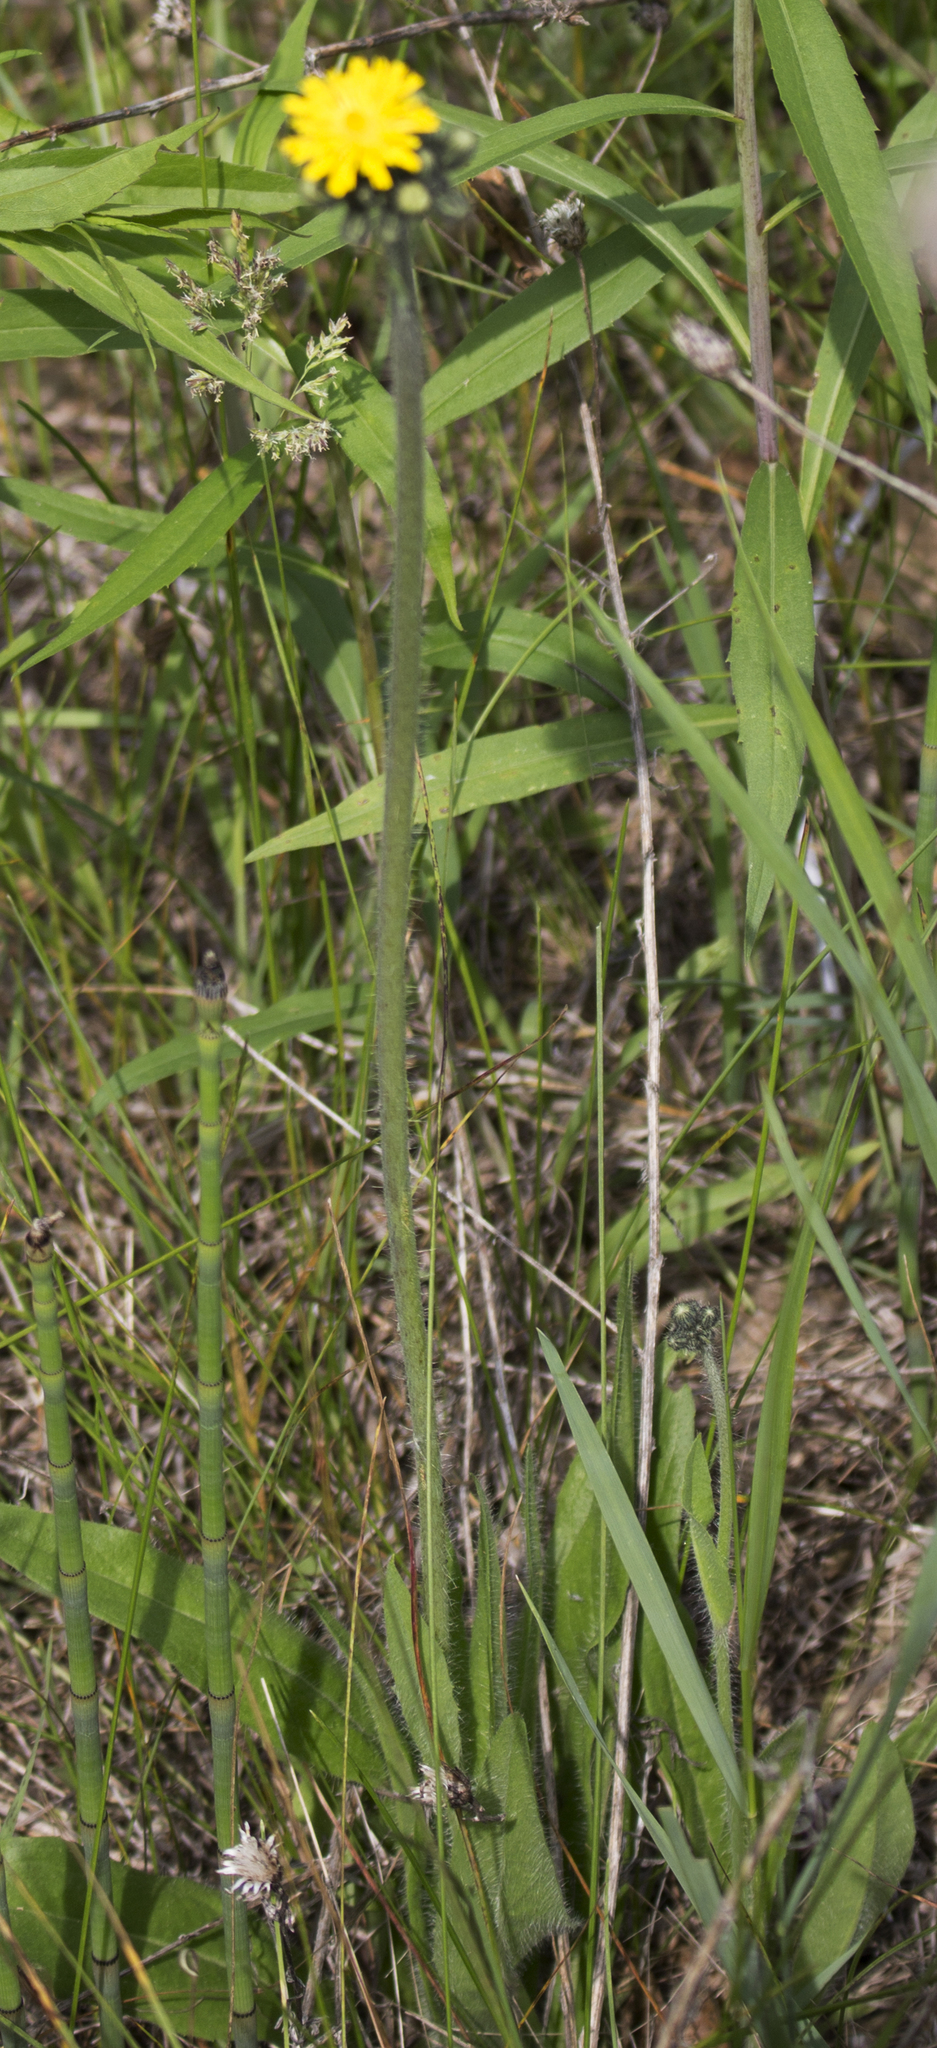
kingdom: Plantae
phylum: Tracheophyta
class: Magnoliopsida
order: Asterales
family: Asteraceae
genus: Pilosella
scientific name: Pilosella caespitosa
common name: Yellow fox-and-cubs
